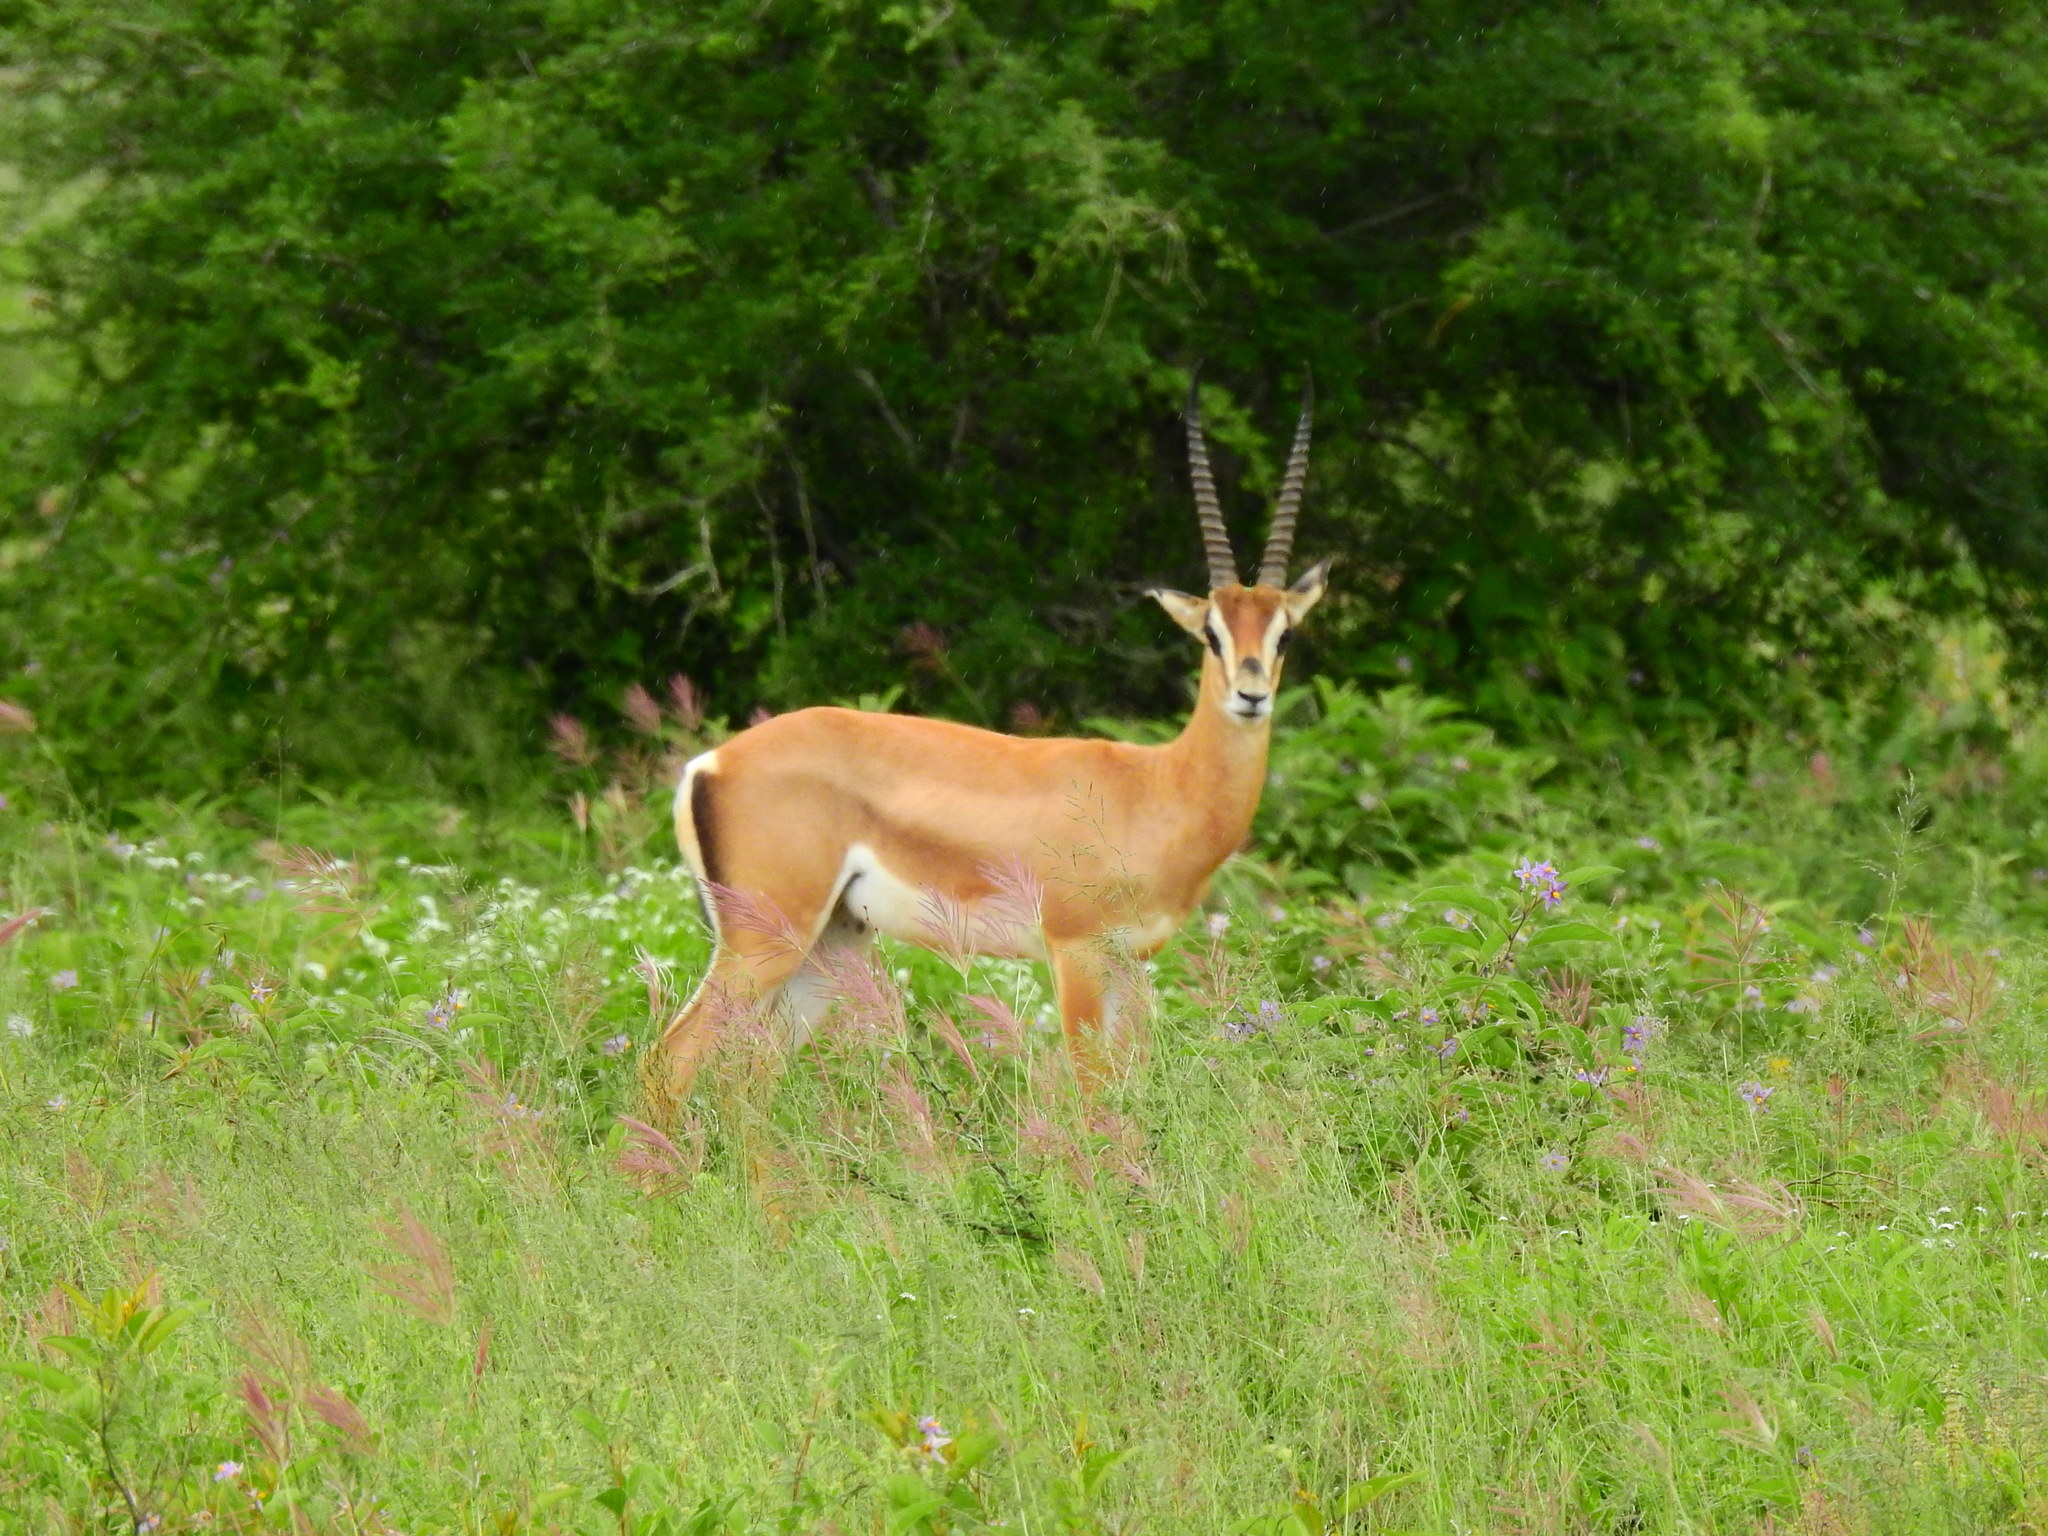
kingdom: Animalia
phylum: Chordata
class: Mammalia
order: Artiodactyla
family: Bovidae
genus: Nanger
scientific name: Nanger granti
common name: Grant's gazelle
